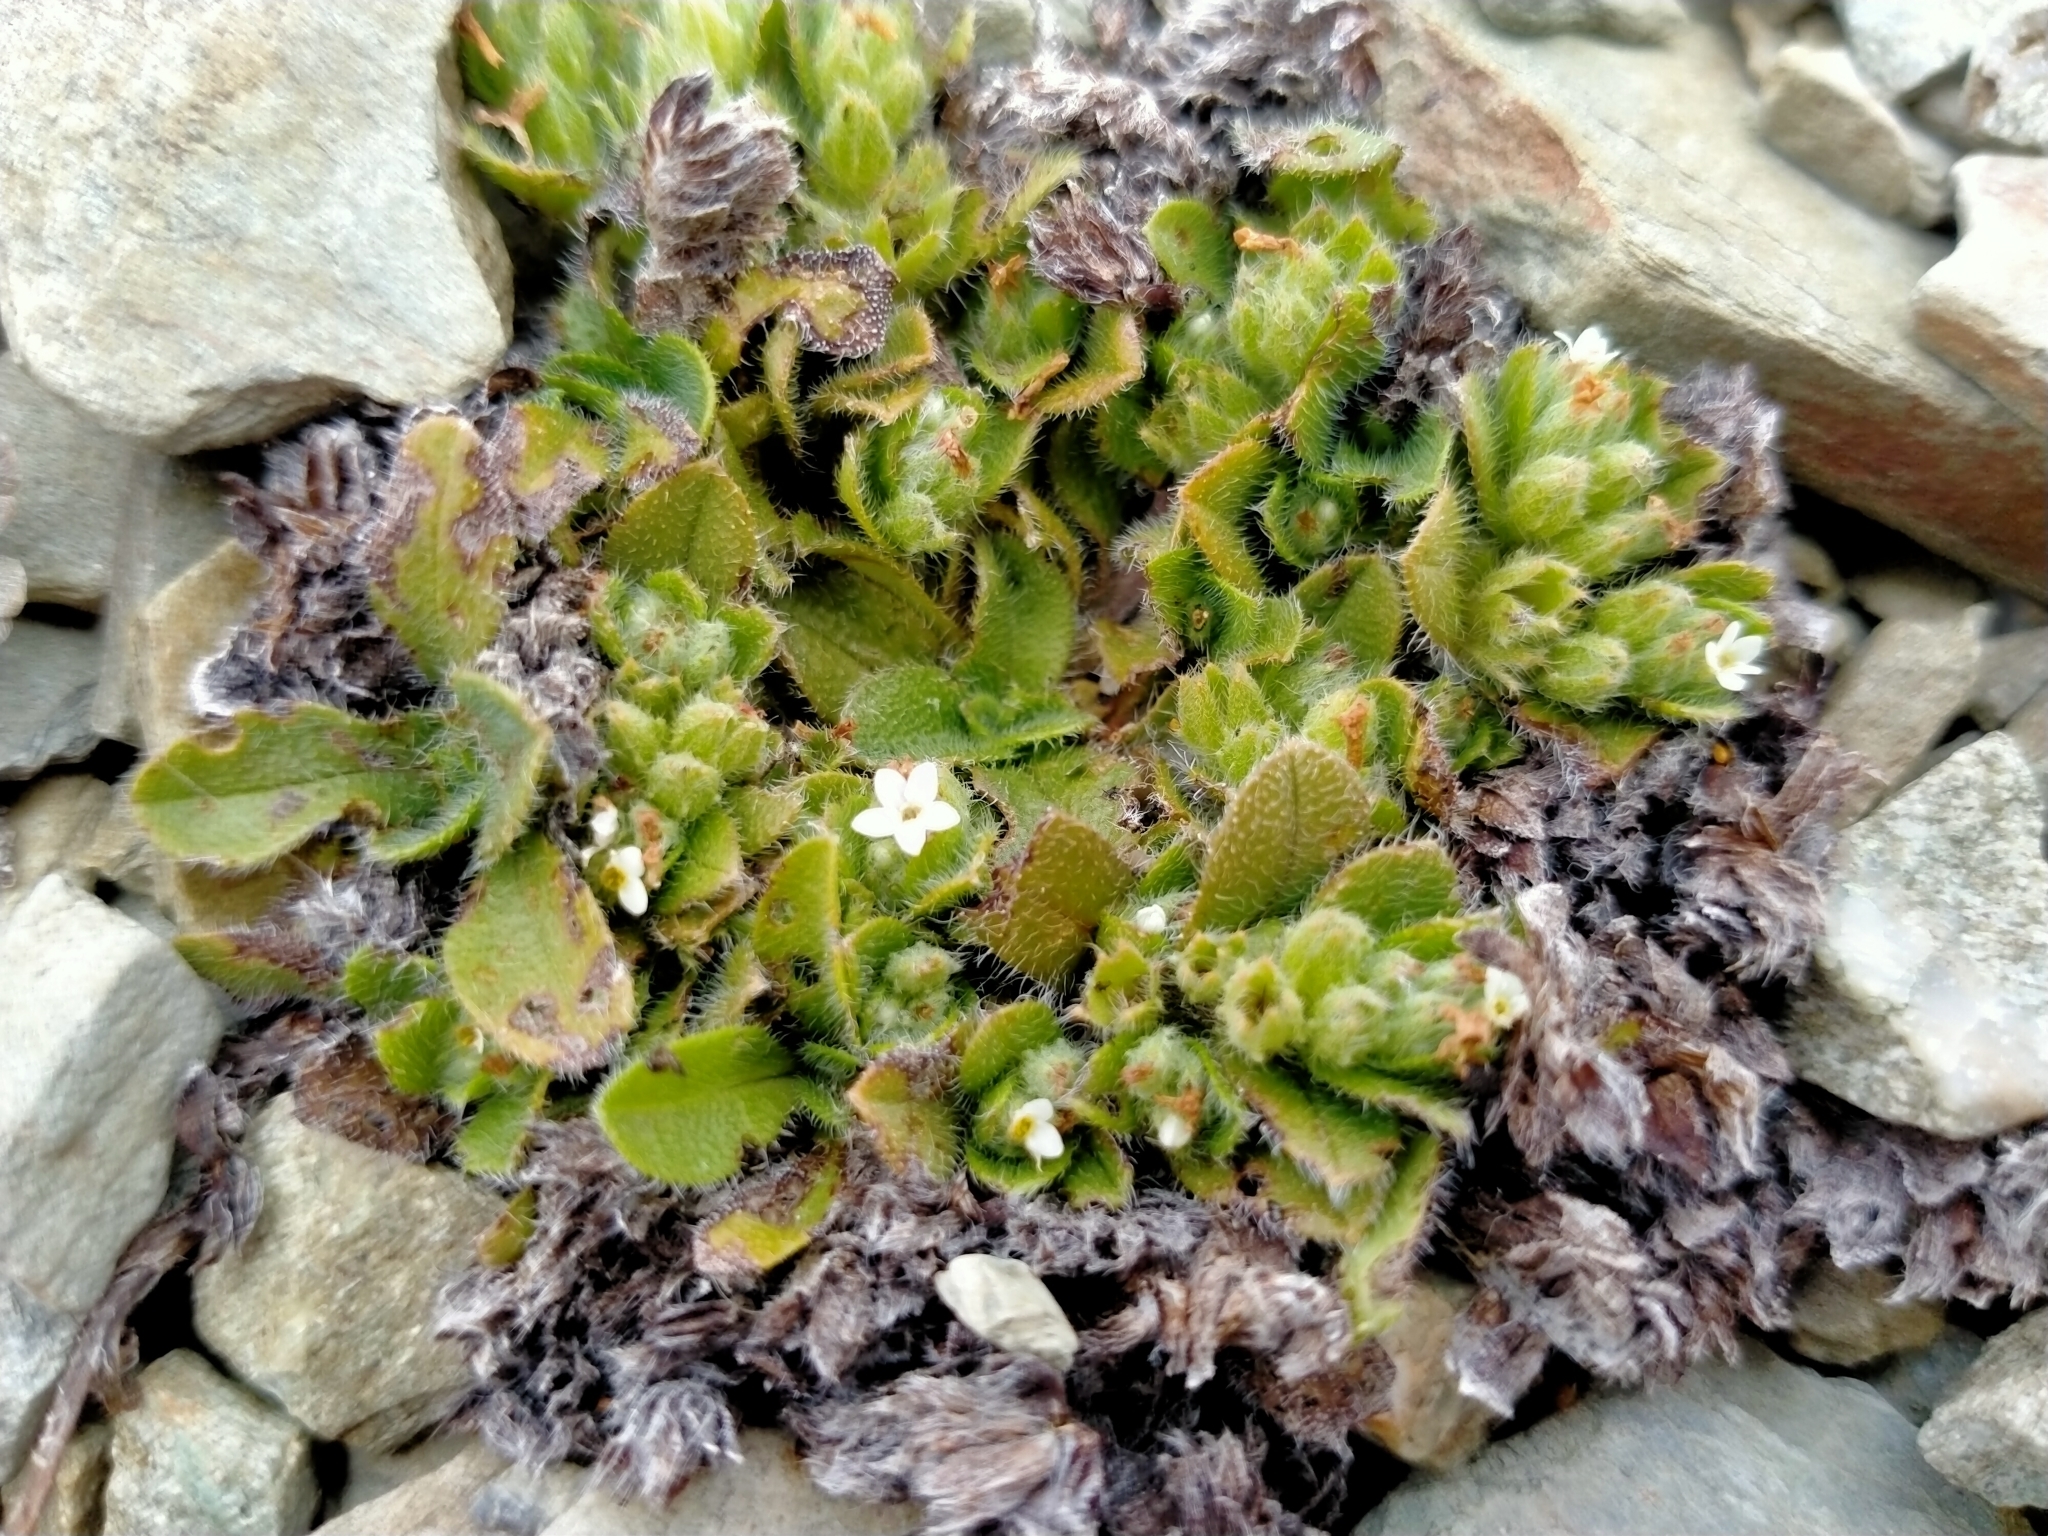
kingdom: Plantae
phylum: Tracheophyta
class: Magnoliopsida
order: Boraginales
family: Boraginaceae
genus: Myosotis
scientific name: Myosotis antarctica
